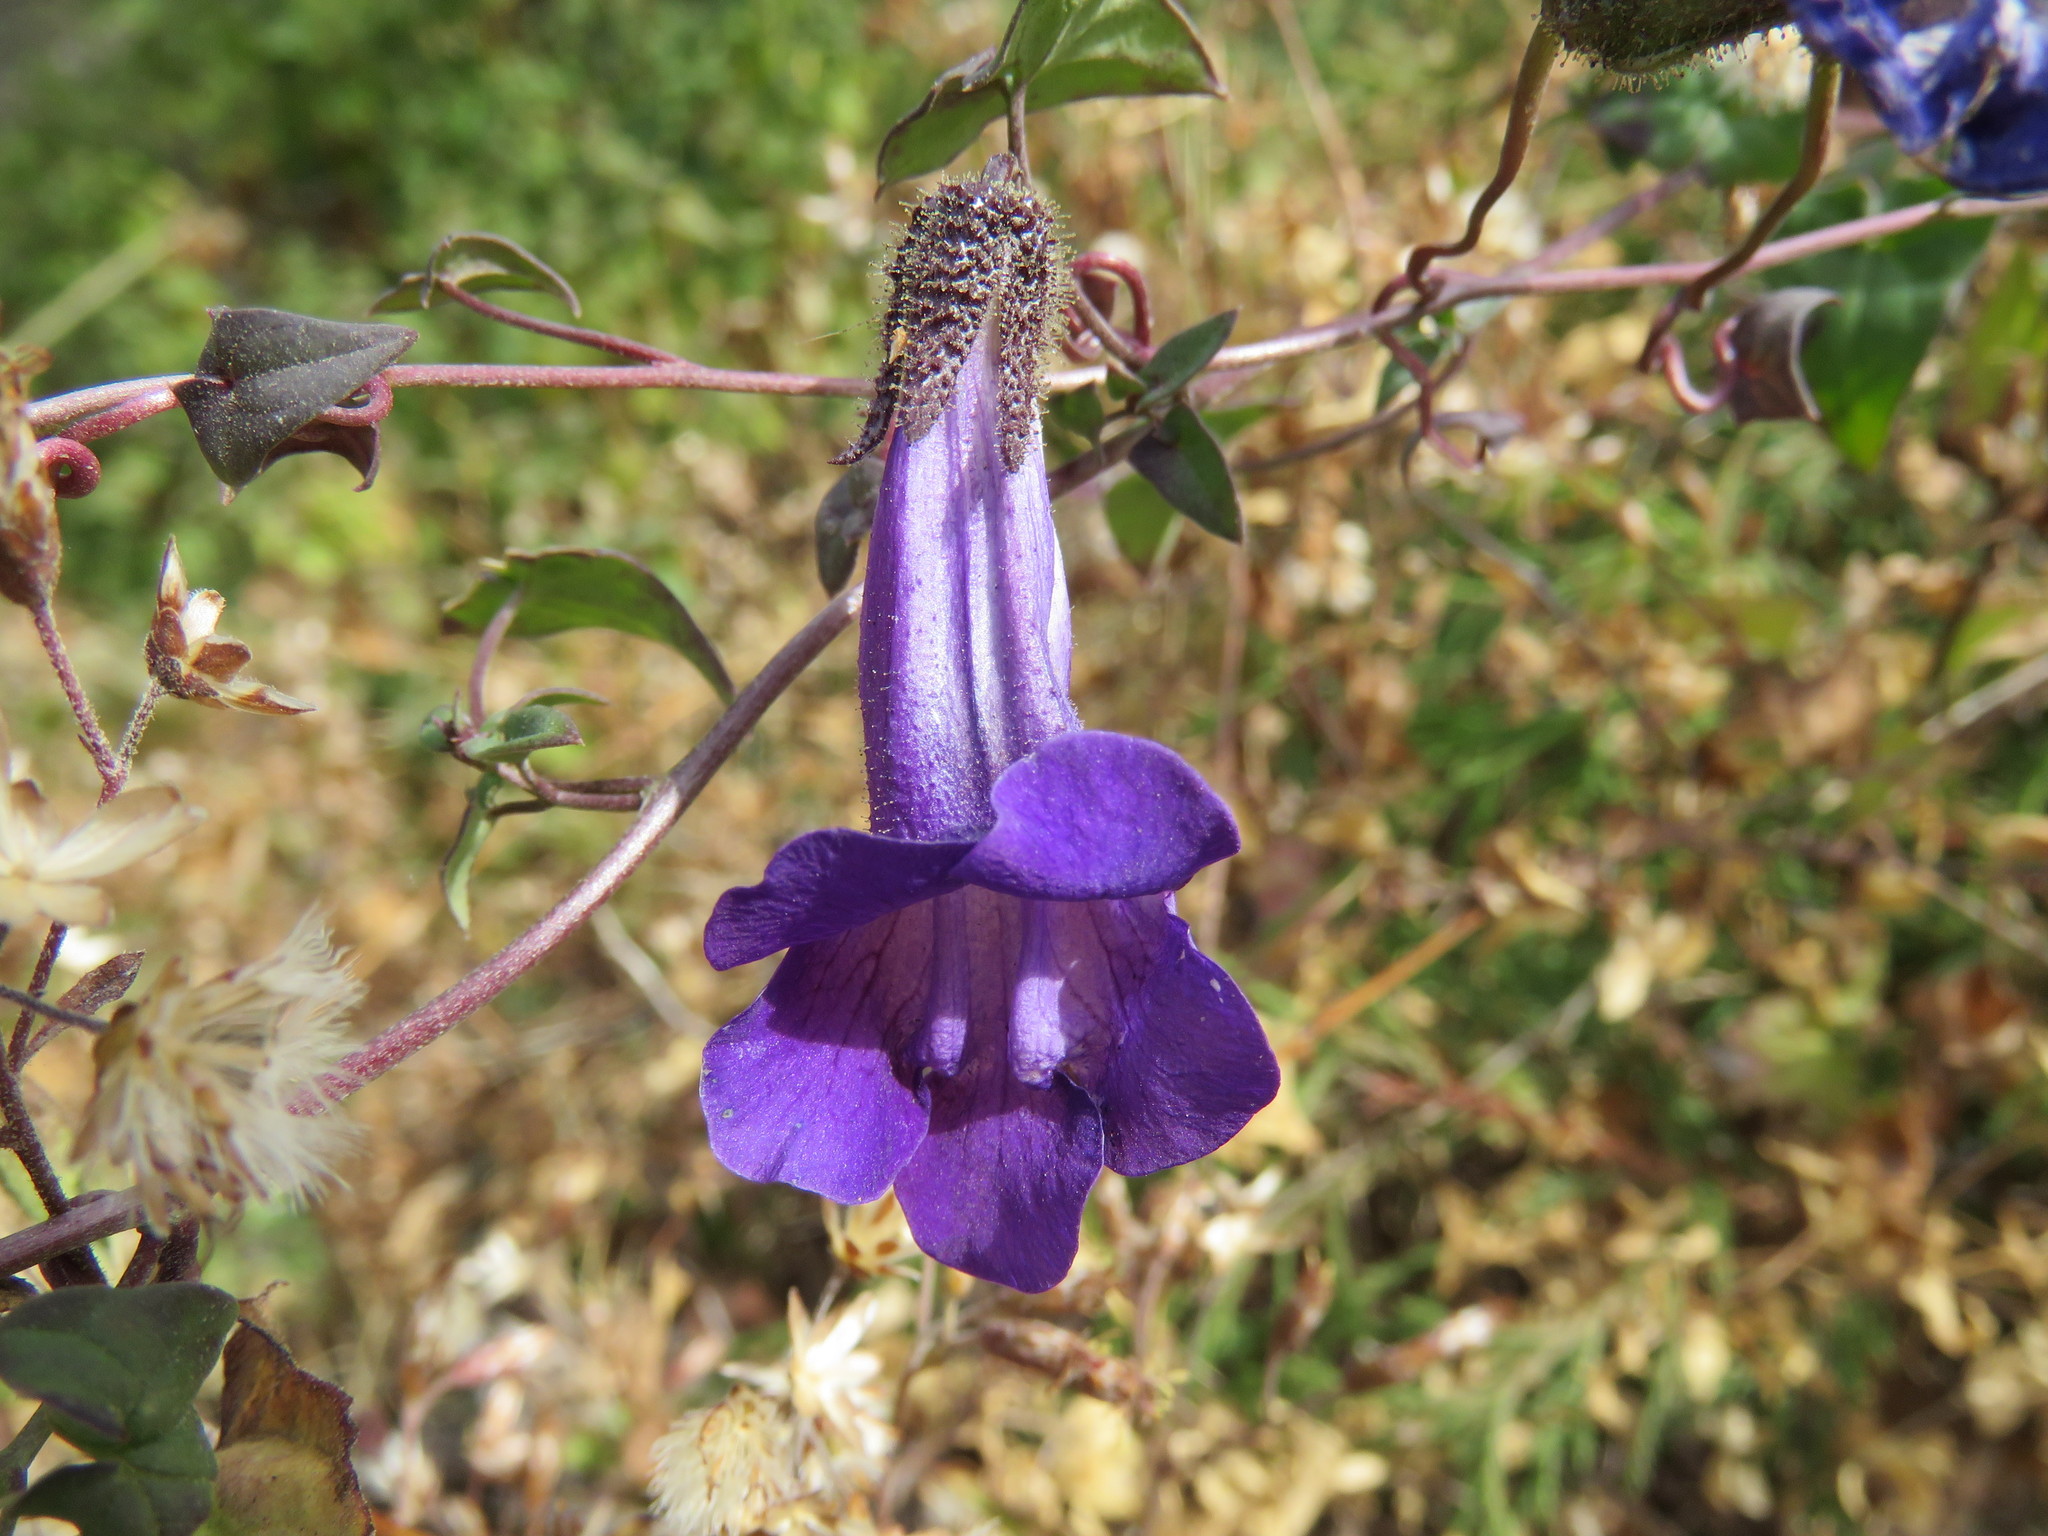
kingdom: Plantae
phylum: Tracheophyta
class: Magnoliopsida
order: Lamiales
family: Plantaginaceae
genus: Maurandella
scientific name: Maurandella antirrhiniflora
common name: Violet twining-snapdragon
